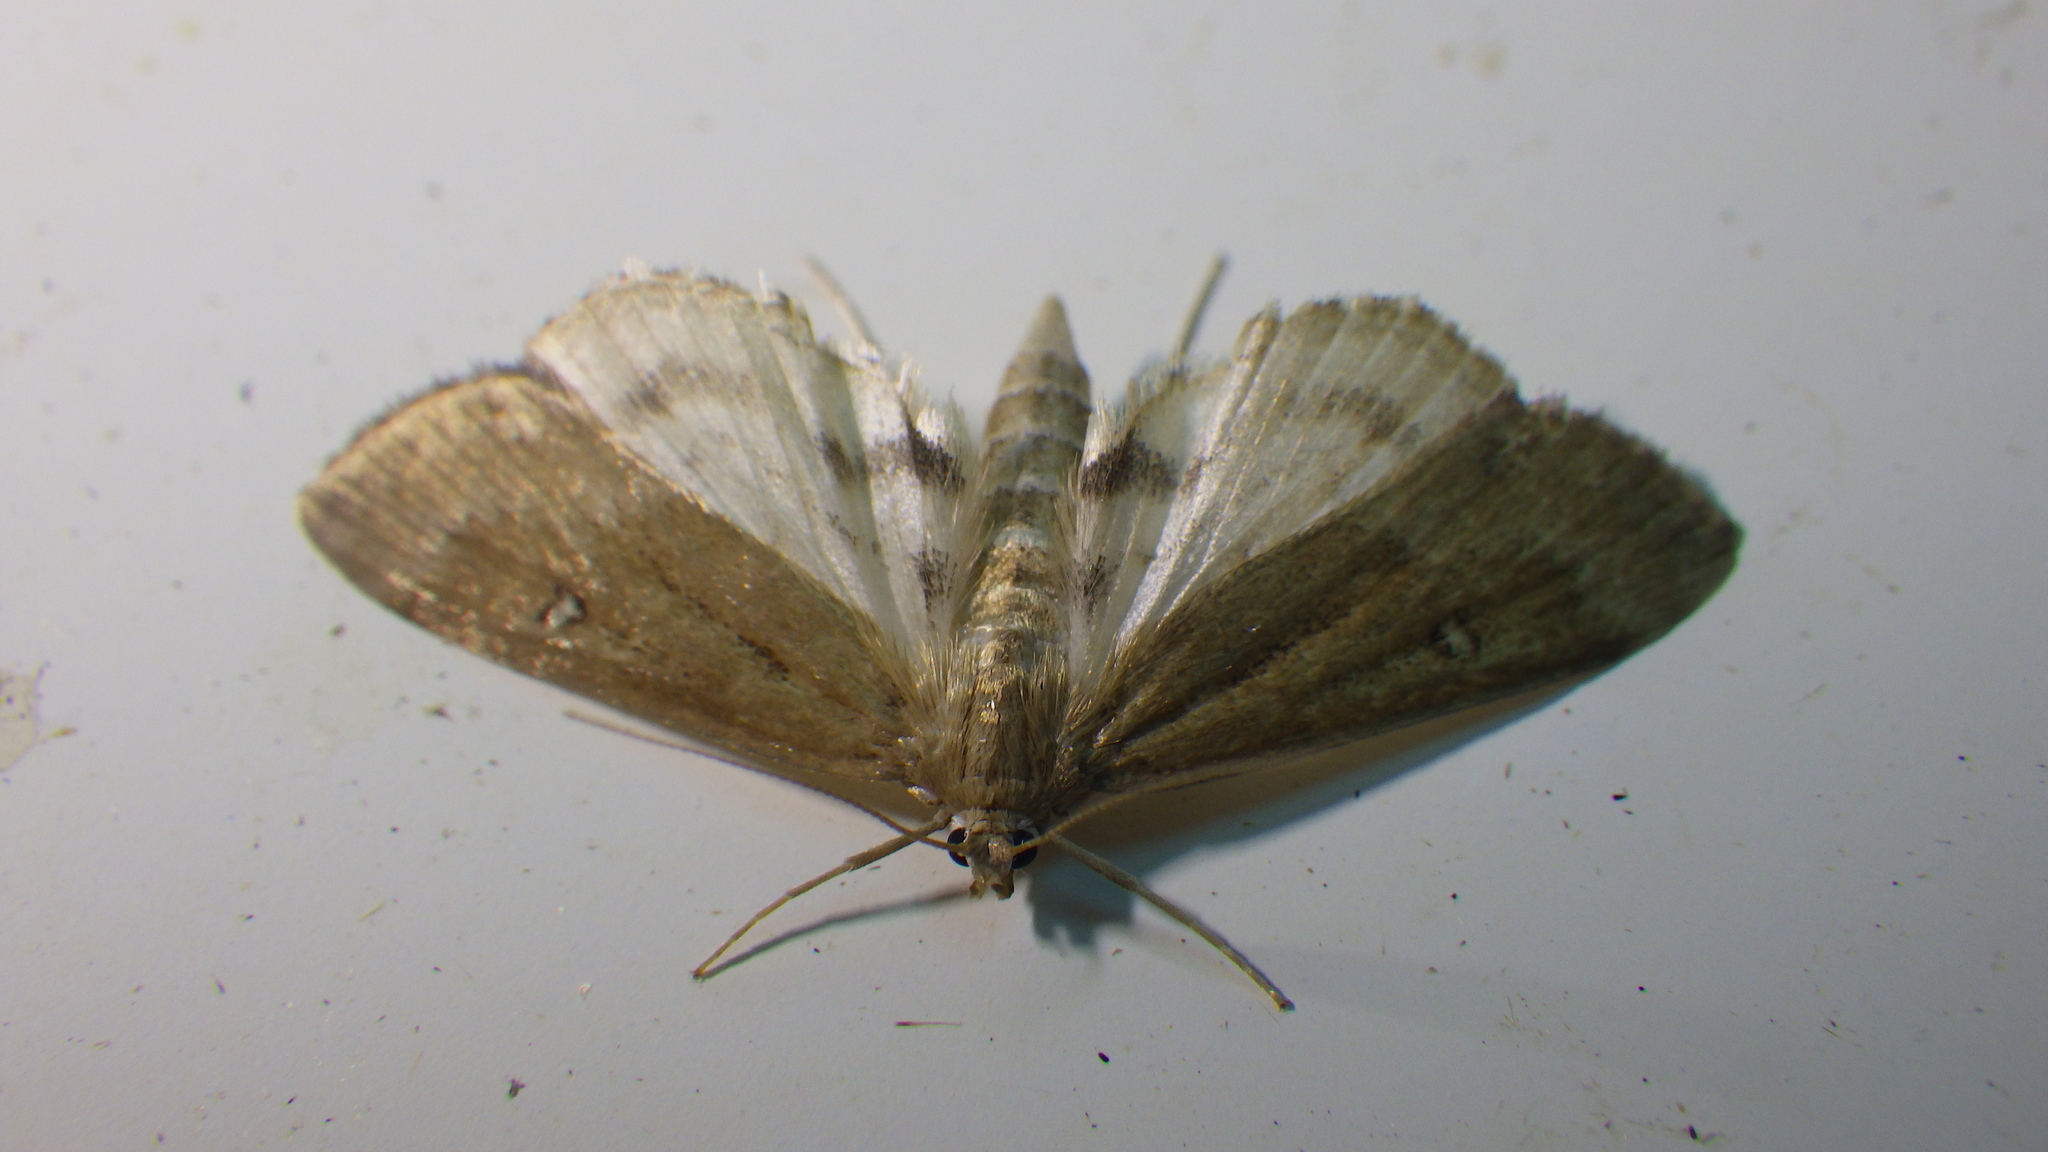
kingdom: Animalia
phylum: Arthropoda
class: Insecta
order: Lepidoptera
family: Crambidae
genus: Parapoynx
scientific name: Parapoynx stratiotata
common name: Ringed china-mark
